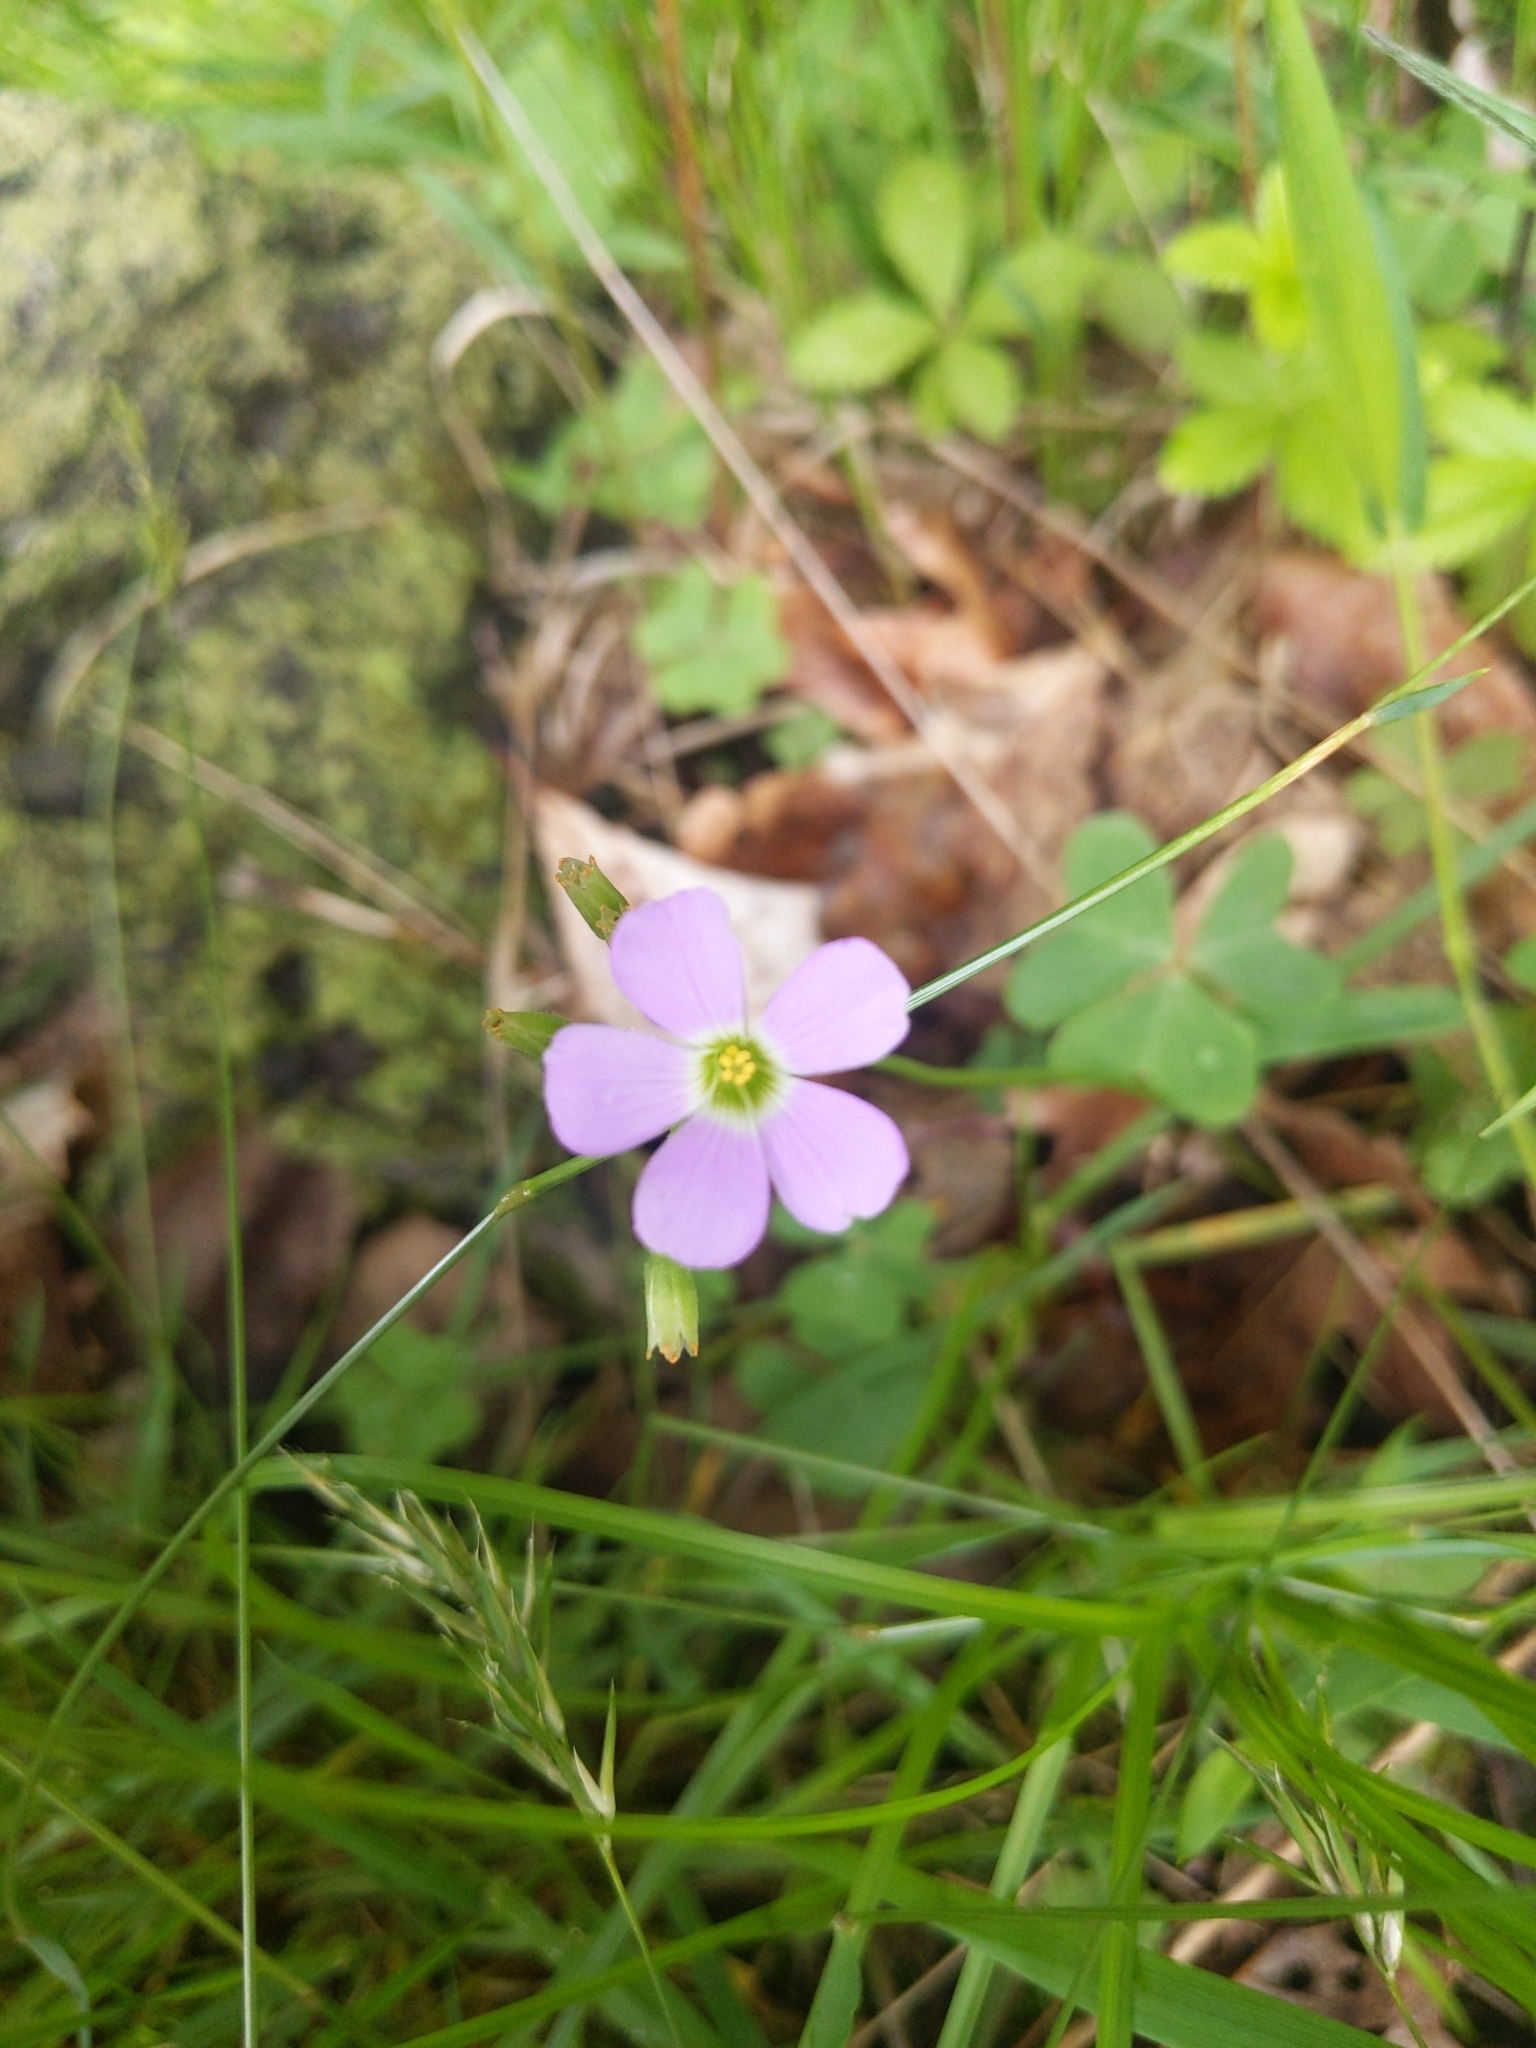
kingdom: Plantae
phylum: Tracheophyta
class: Magnoliopsida
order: Oxalidales
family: Oxalidaceae
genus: Oxalis
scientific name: Oxalis violacea
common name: Violet wood-sorrel
